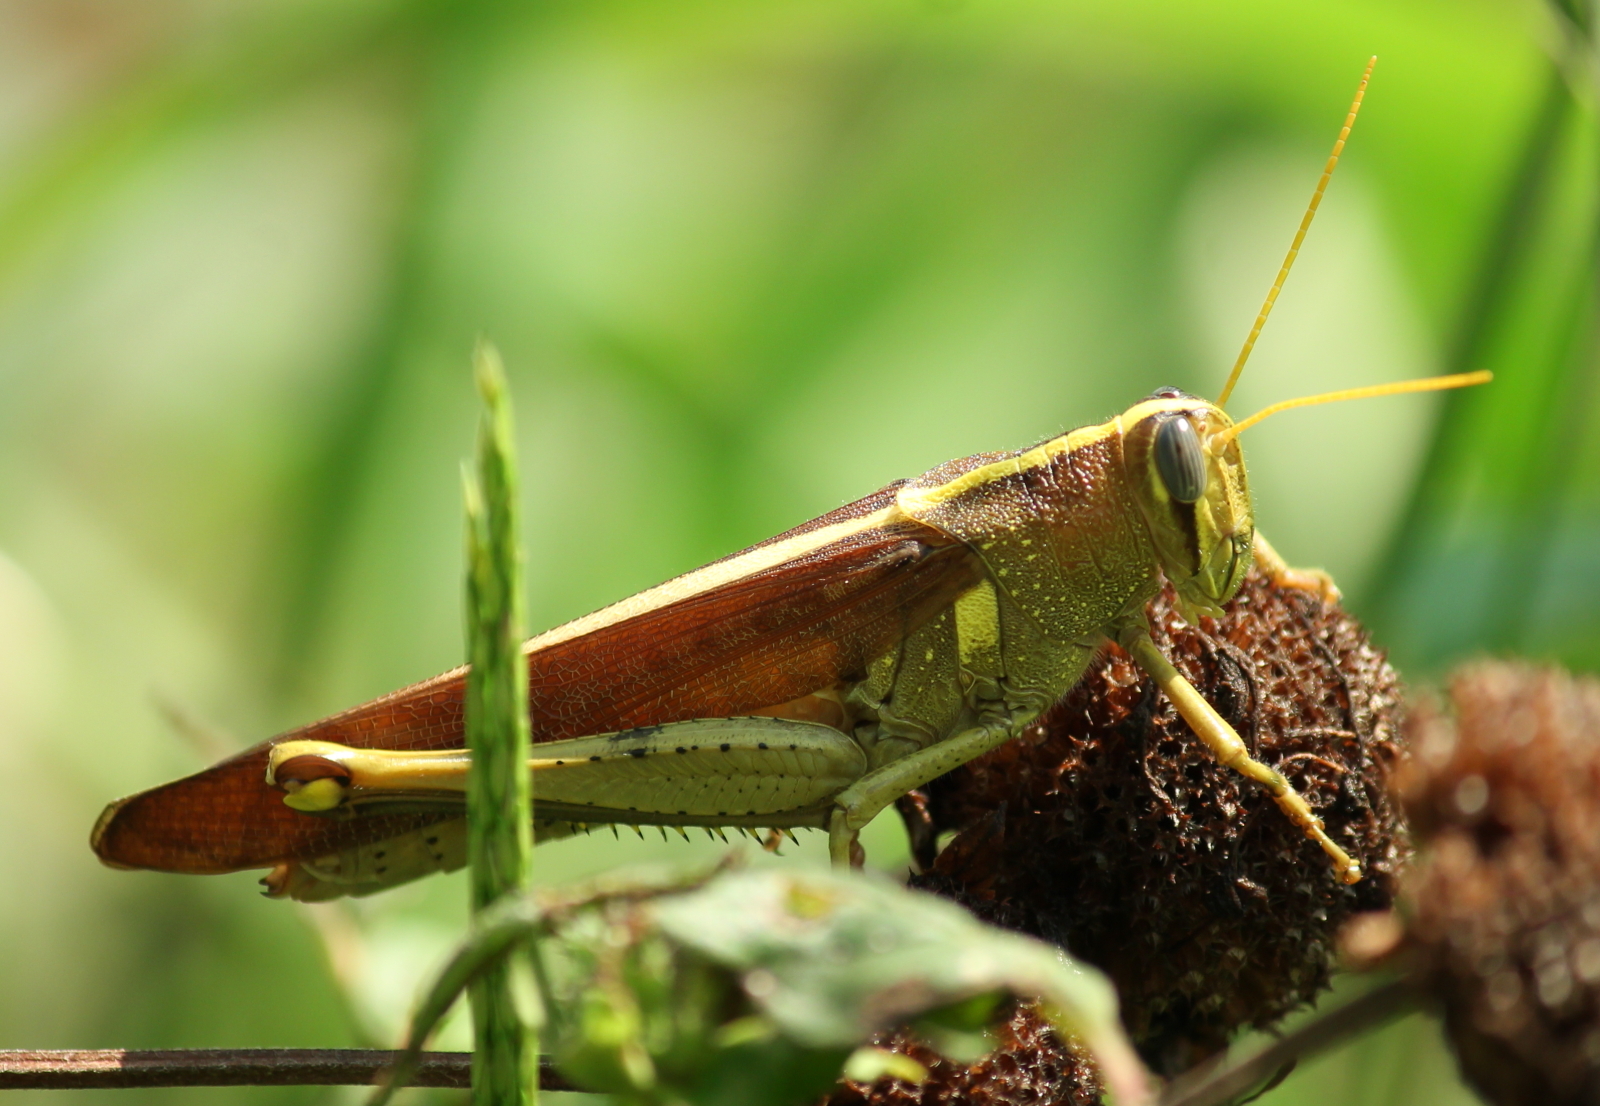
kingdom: Animalia
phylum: Arthropoda
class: Insecta
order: Orthoptera
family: Acrididae
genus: Schistocerca
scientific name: Schistocerca obscura
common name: Obscure bird grasshopper
